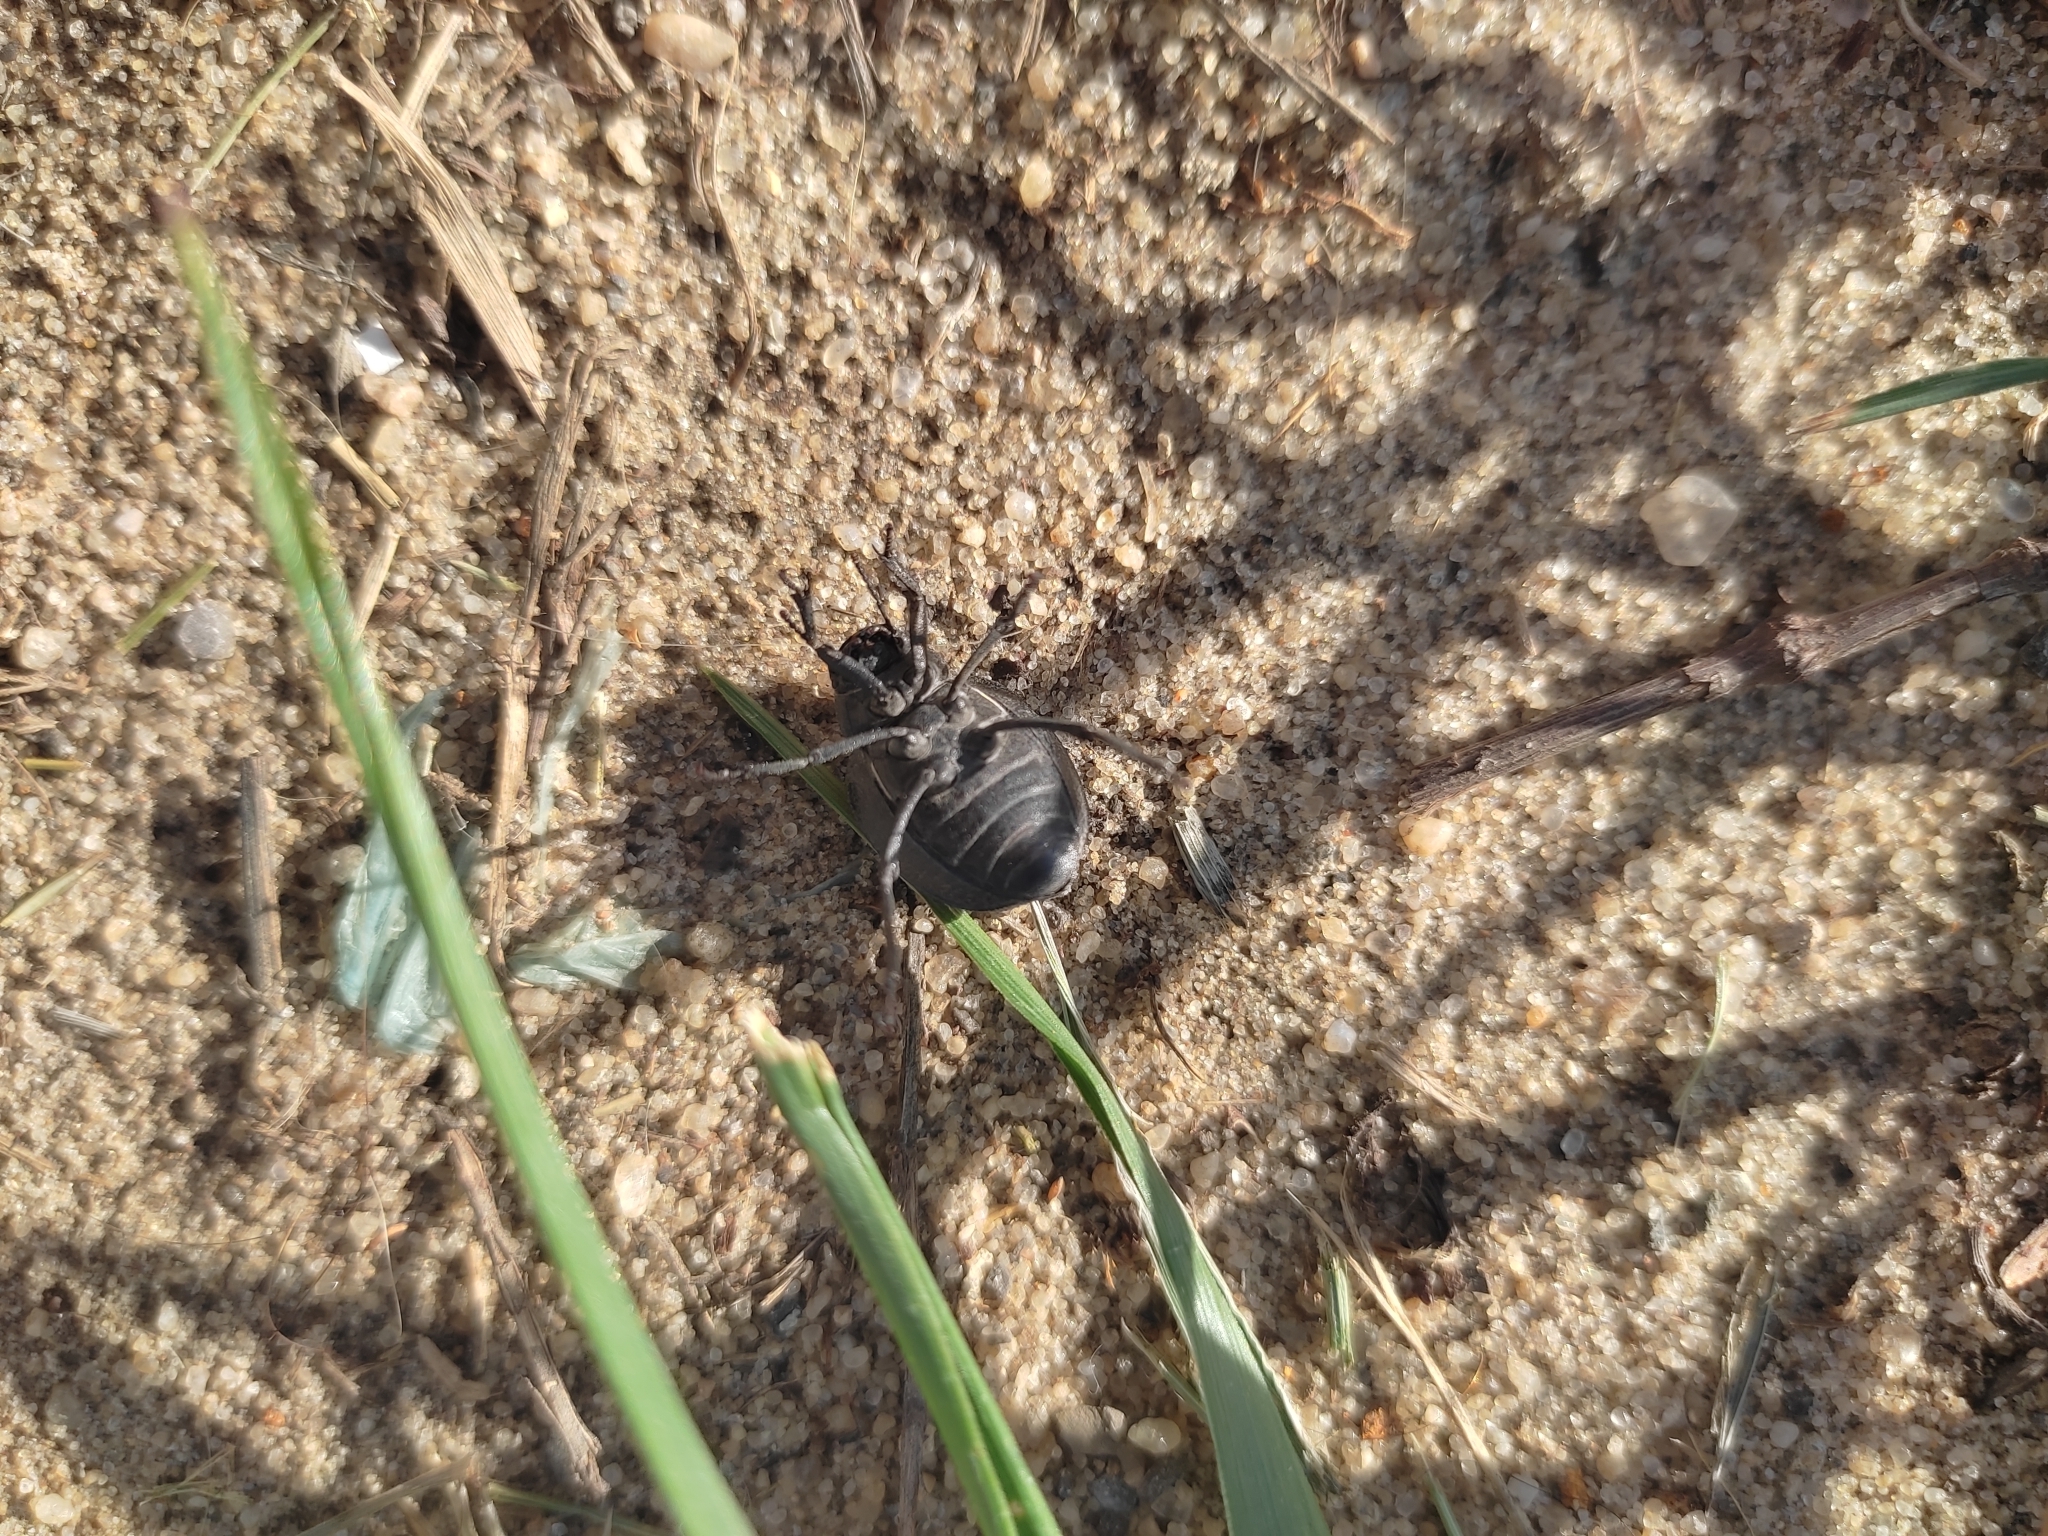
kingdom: Animalia
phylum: Arthropoda
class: Insecta
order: Coleoptera
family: Tenebrionidae
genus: Pimelia
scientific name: Pimelia subglobosa
